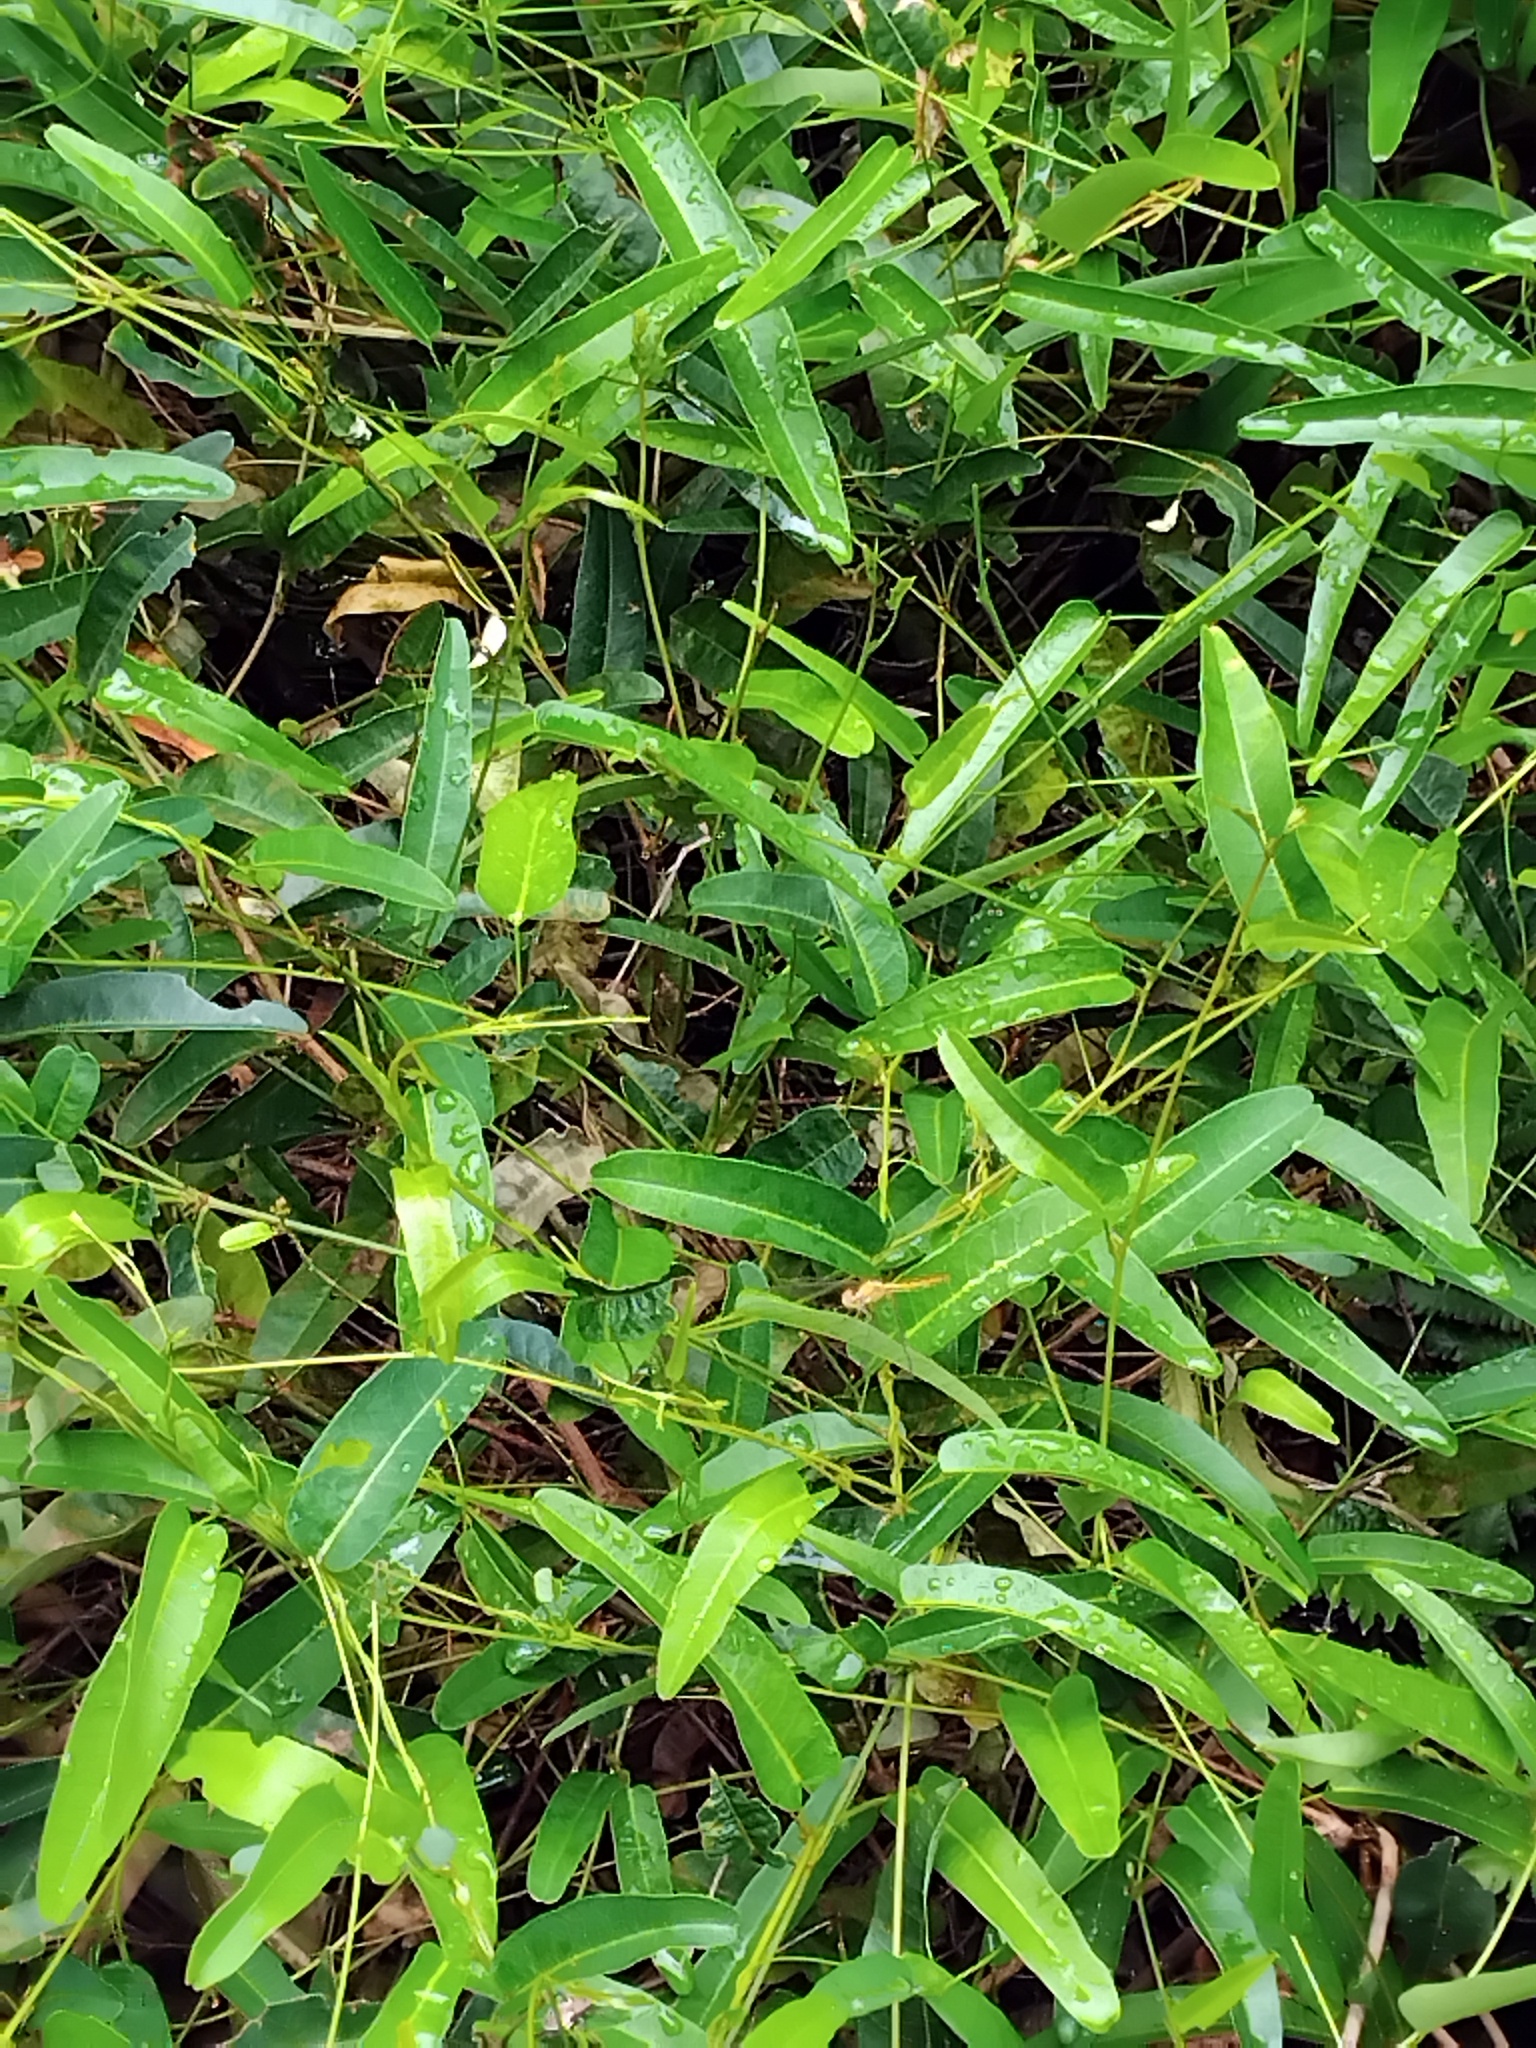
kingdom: Animalia
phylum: Arthropoda
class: Insecta
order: Odonata
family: Libellulidae
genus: Diplacodes
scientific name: Diplacodes haematodes
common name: Scarlet percher
